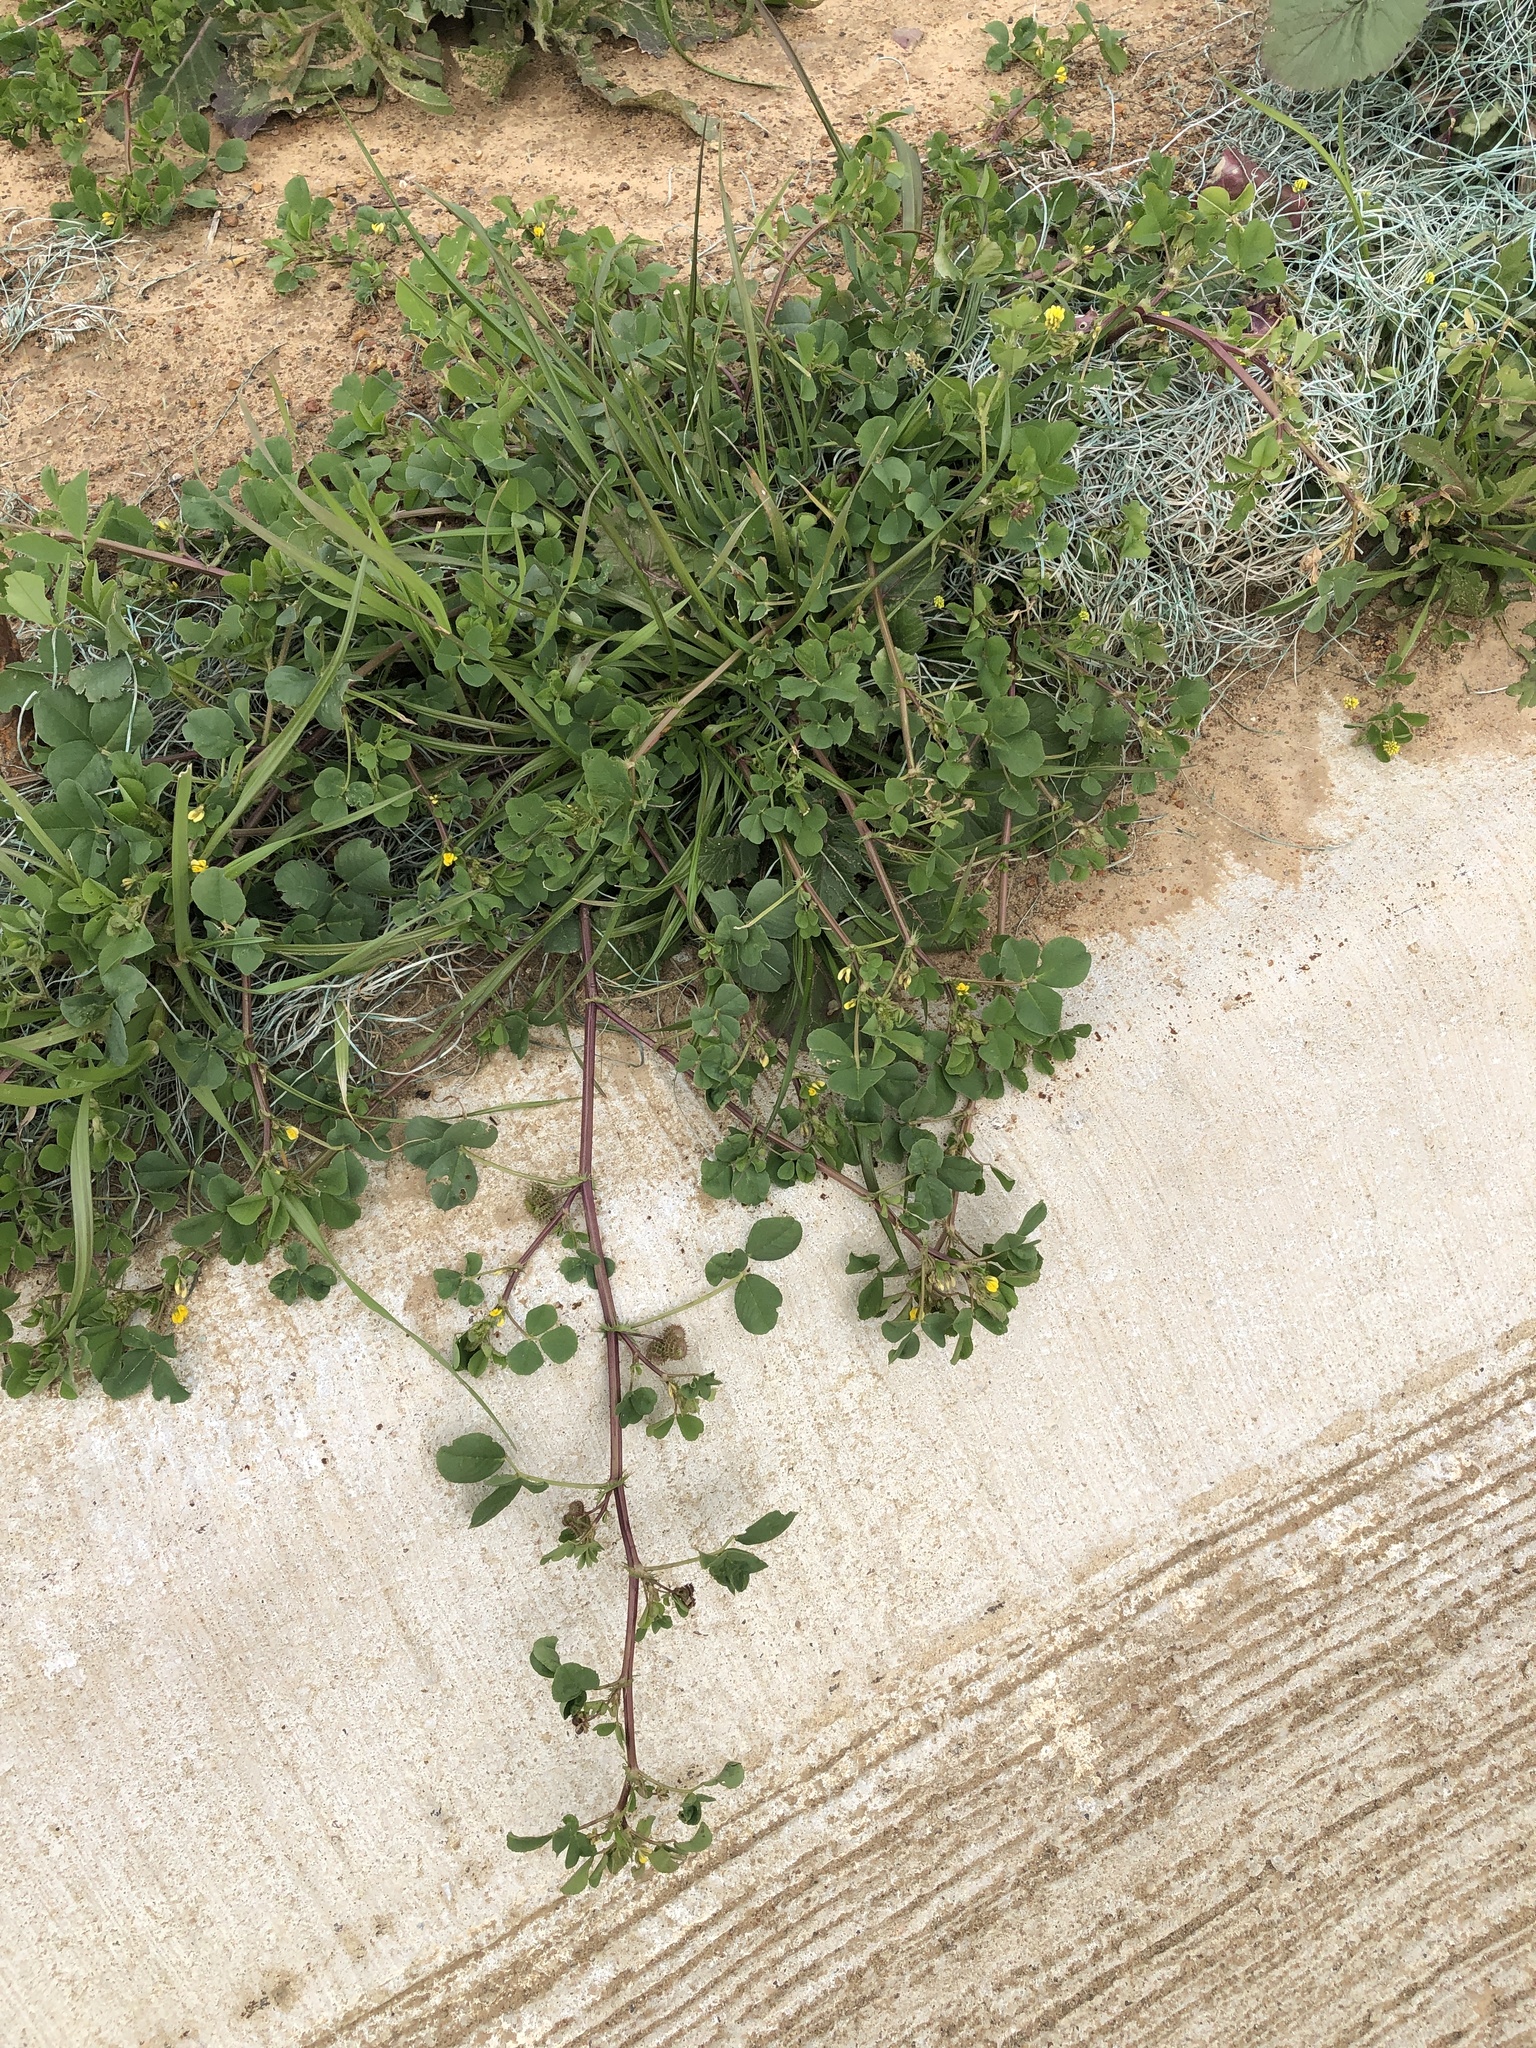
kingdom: Plantae
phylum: Tracheophyta
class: Magnoliopsida
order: Fabales
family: Fabaceae
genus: Medicago
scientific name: Medicago polymorpha
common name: Burclover
